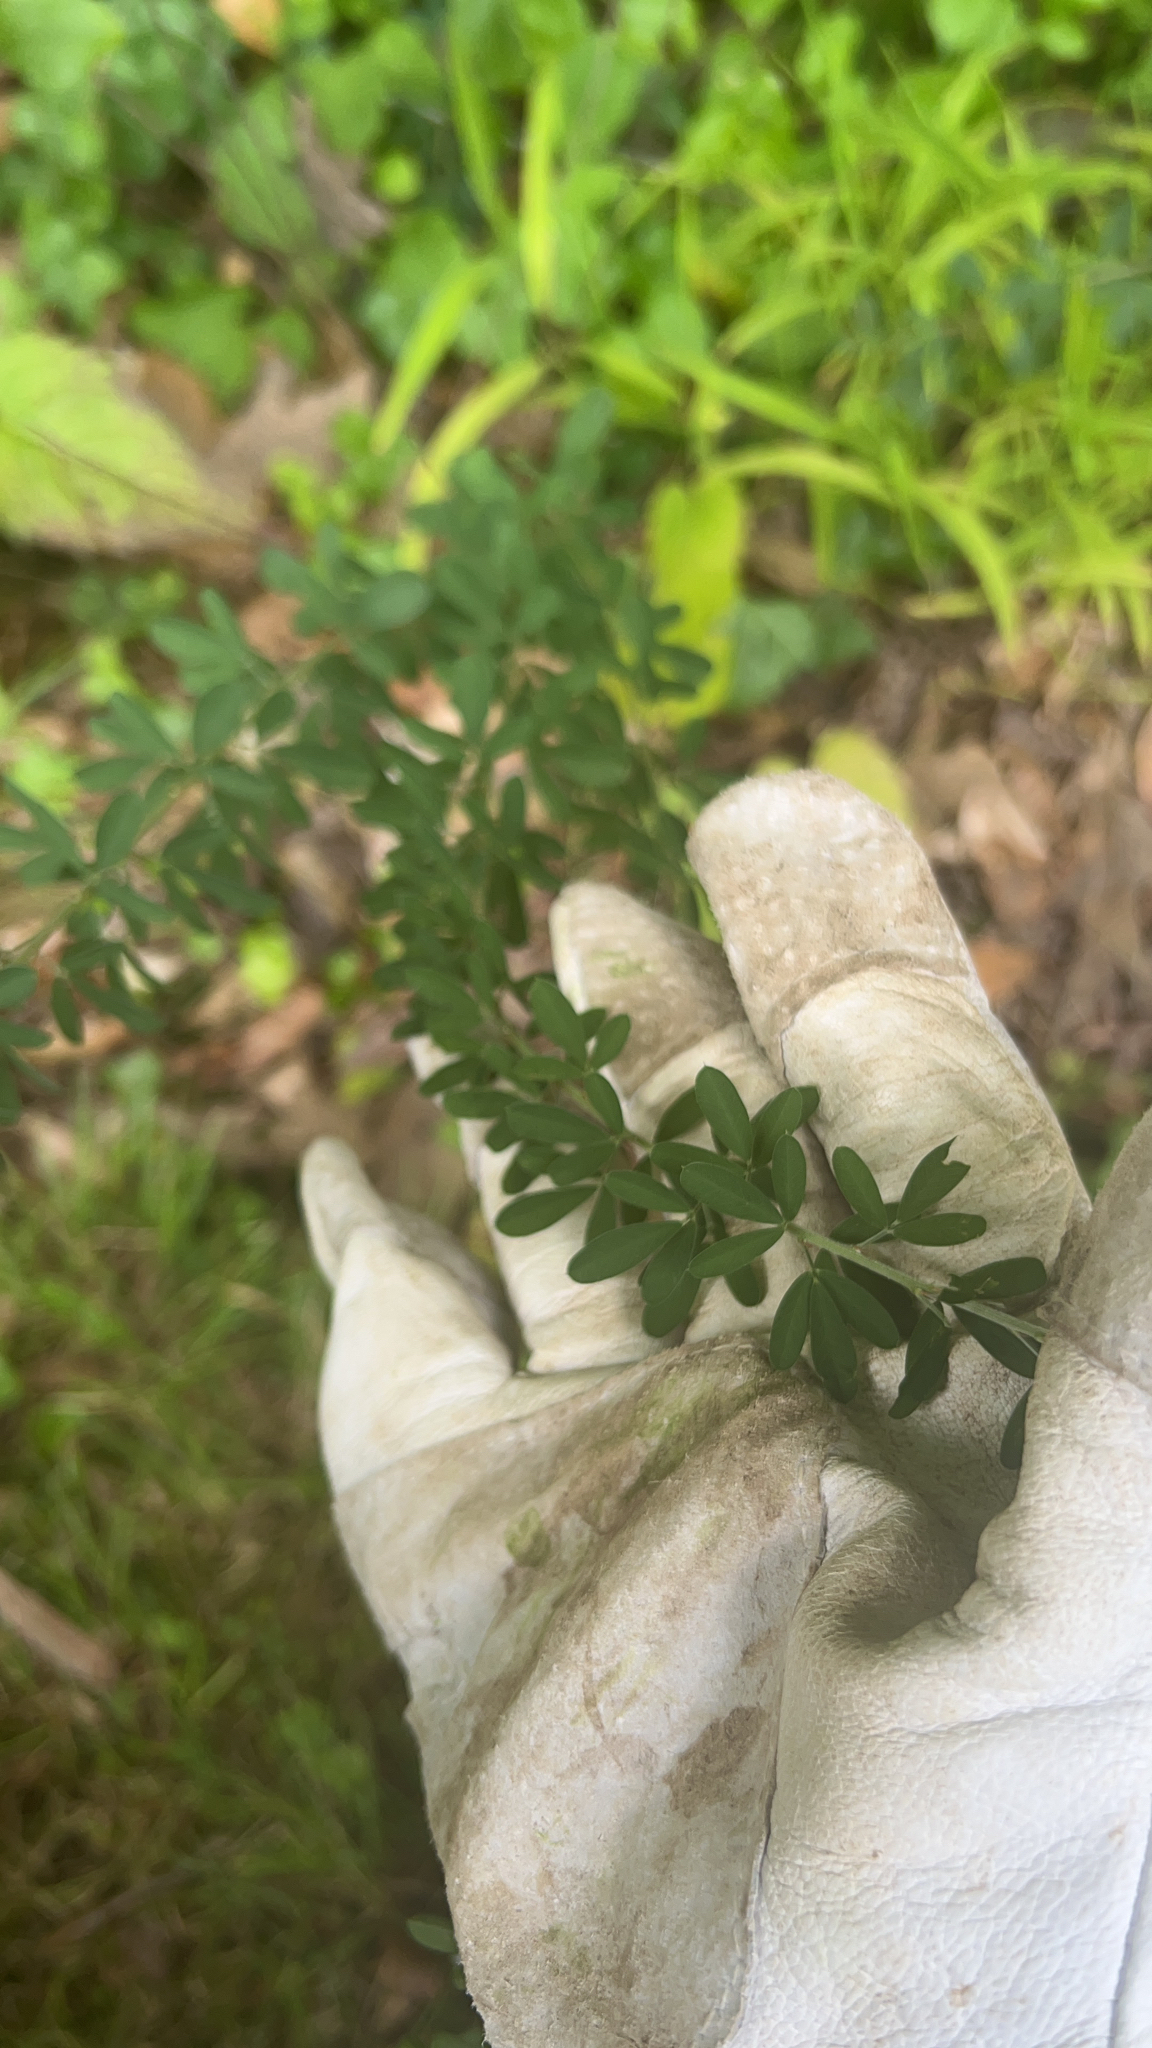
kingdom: Plantae
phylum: Tracheophyta
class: Magnoliopsida
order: Fabales
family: Fabaceae
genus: Lespedeza
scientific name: Lespedeza cuneata
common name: Chinese bush-clover
